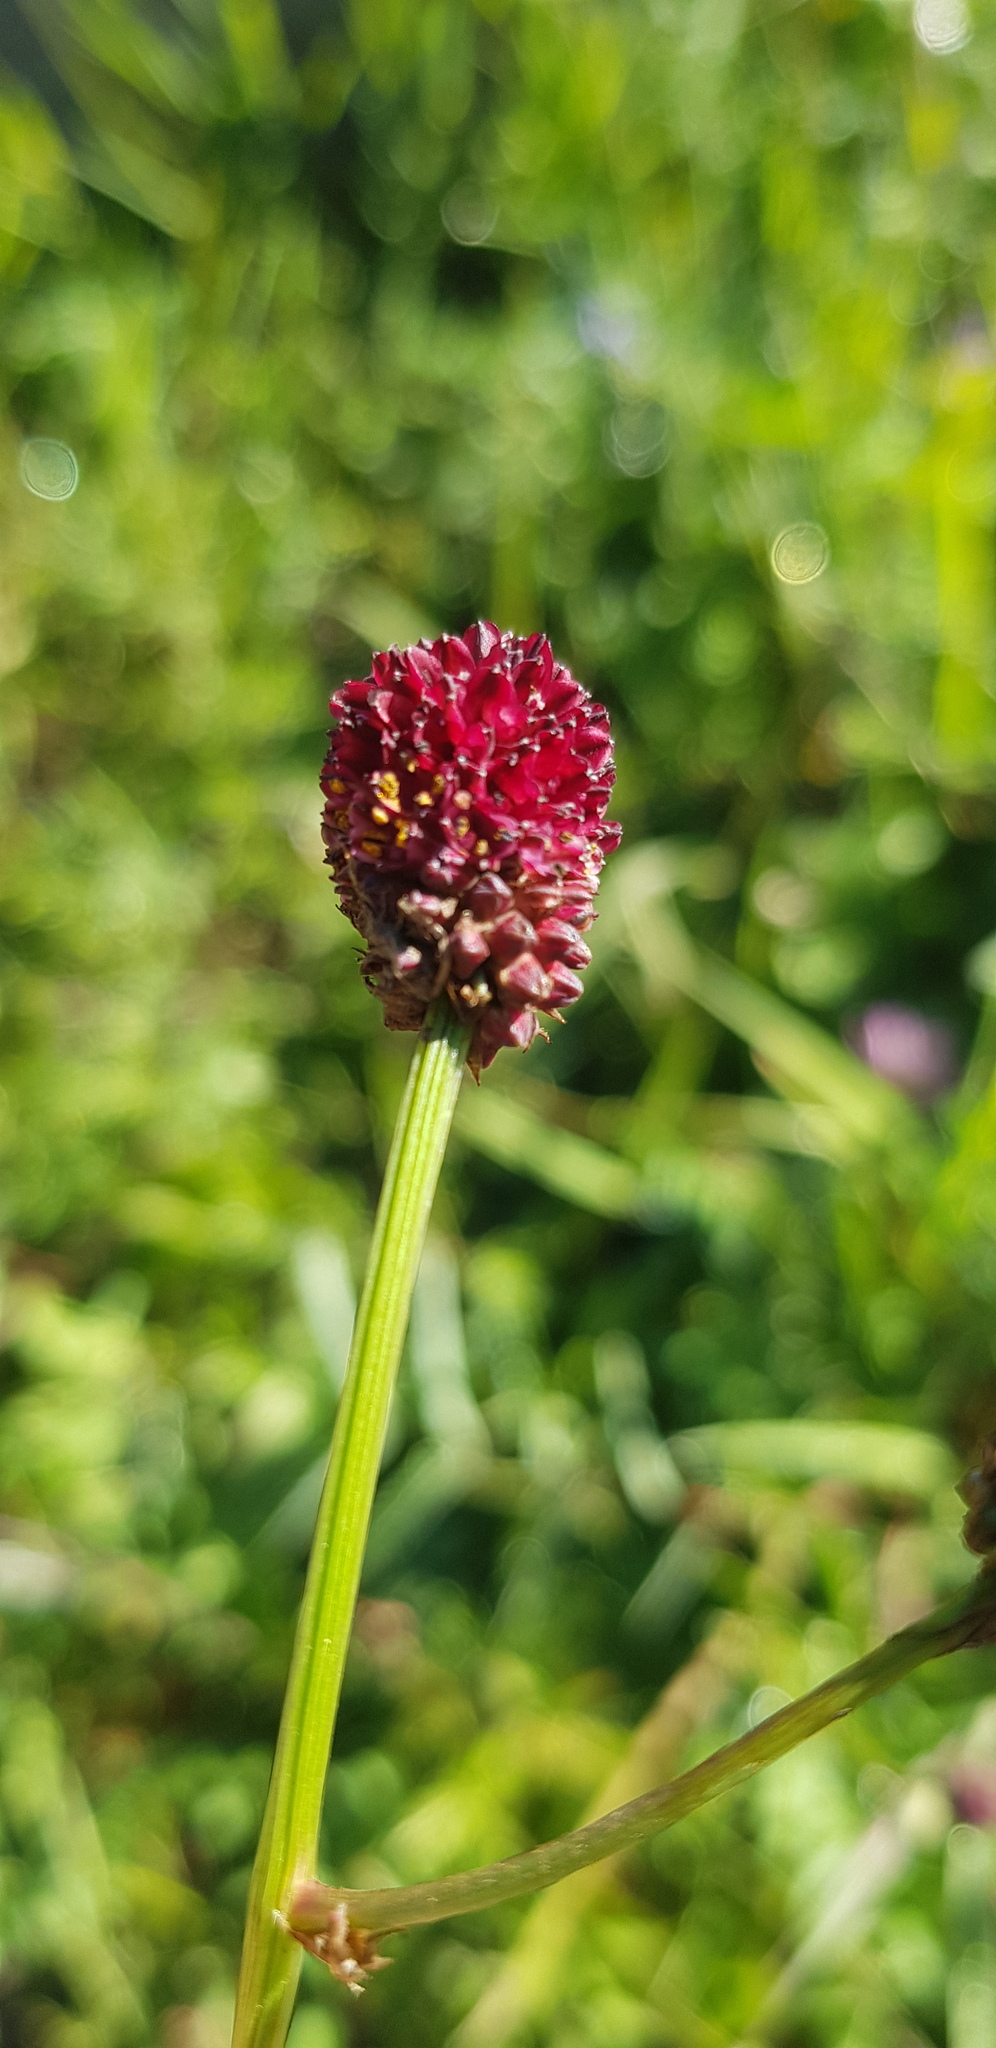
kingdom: Plantae
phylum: Tracheophyta
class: Magnoliopsida
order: Rosales
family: Rosaceae
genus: Sanguisorba
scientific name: Sanguisorba officinalis
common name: Great burnet
